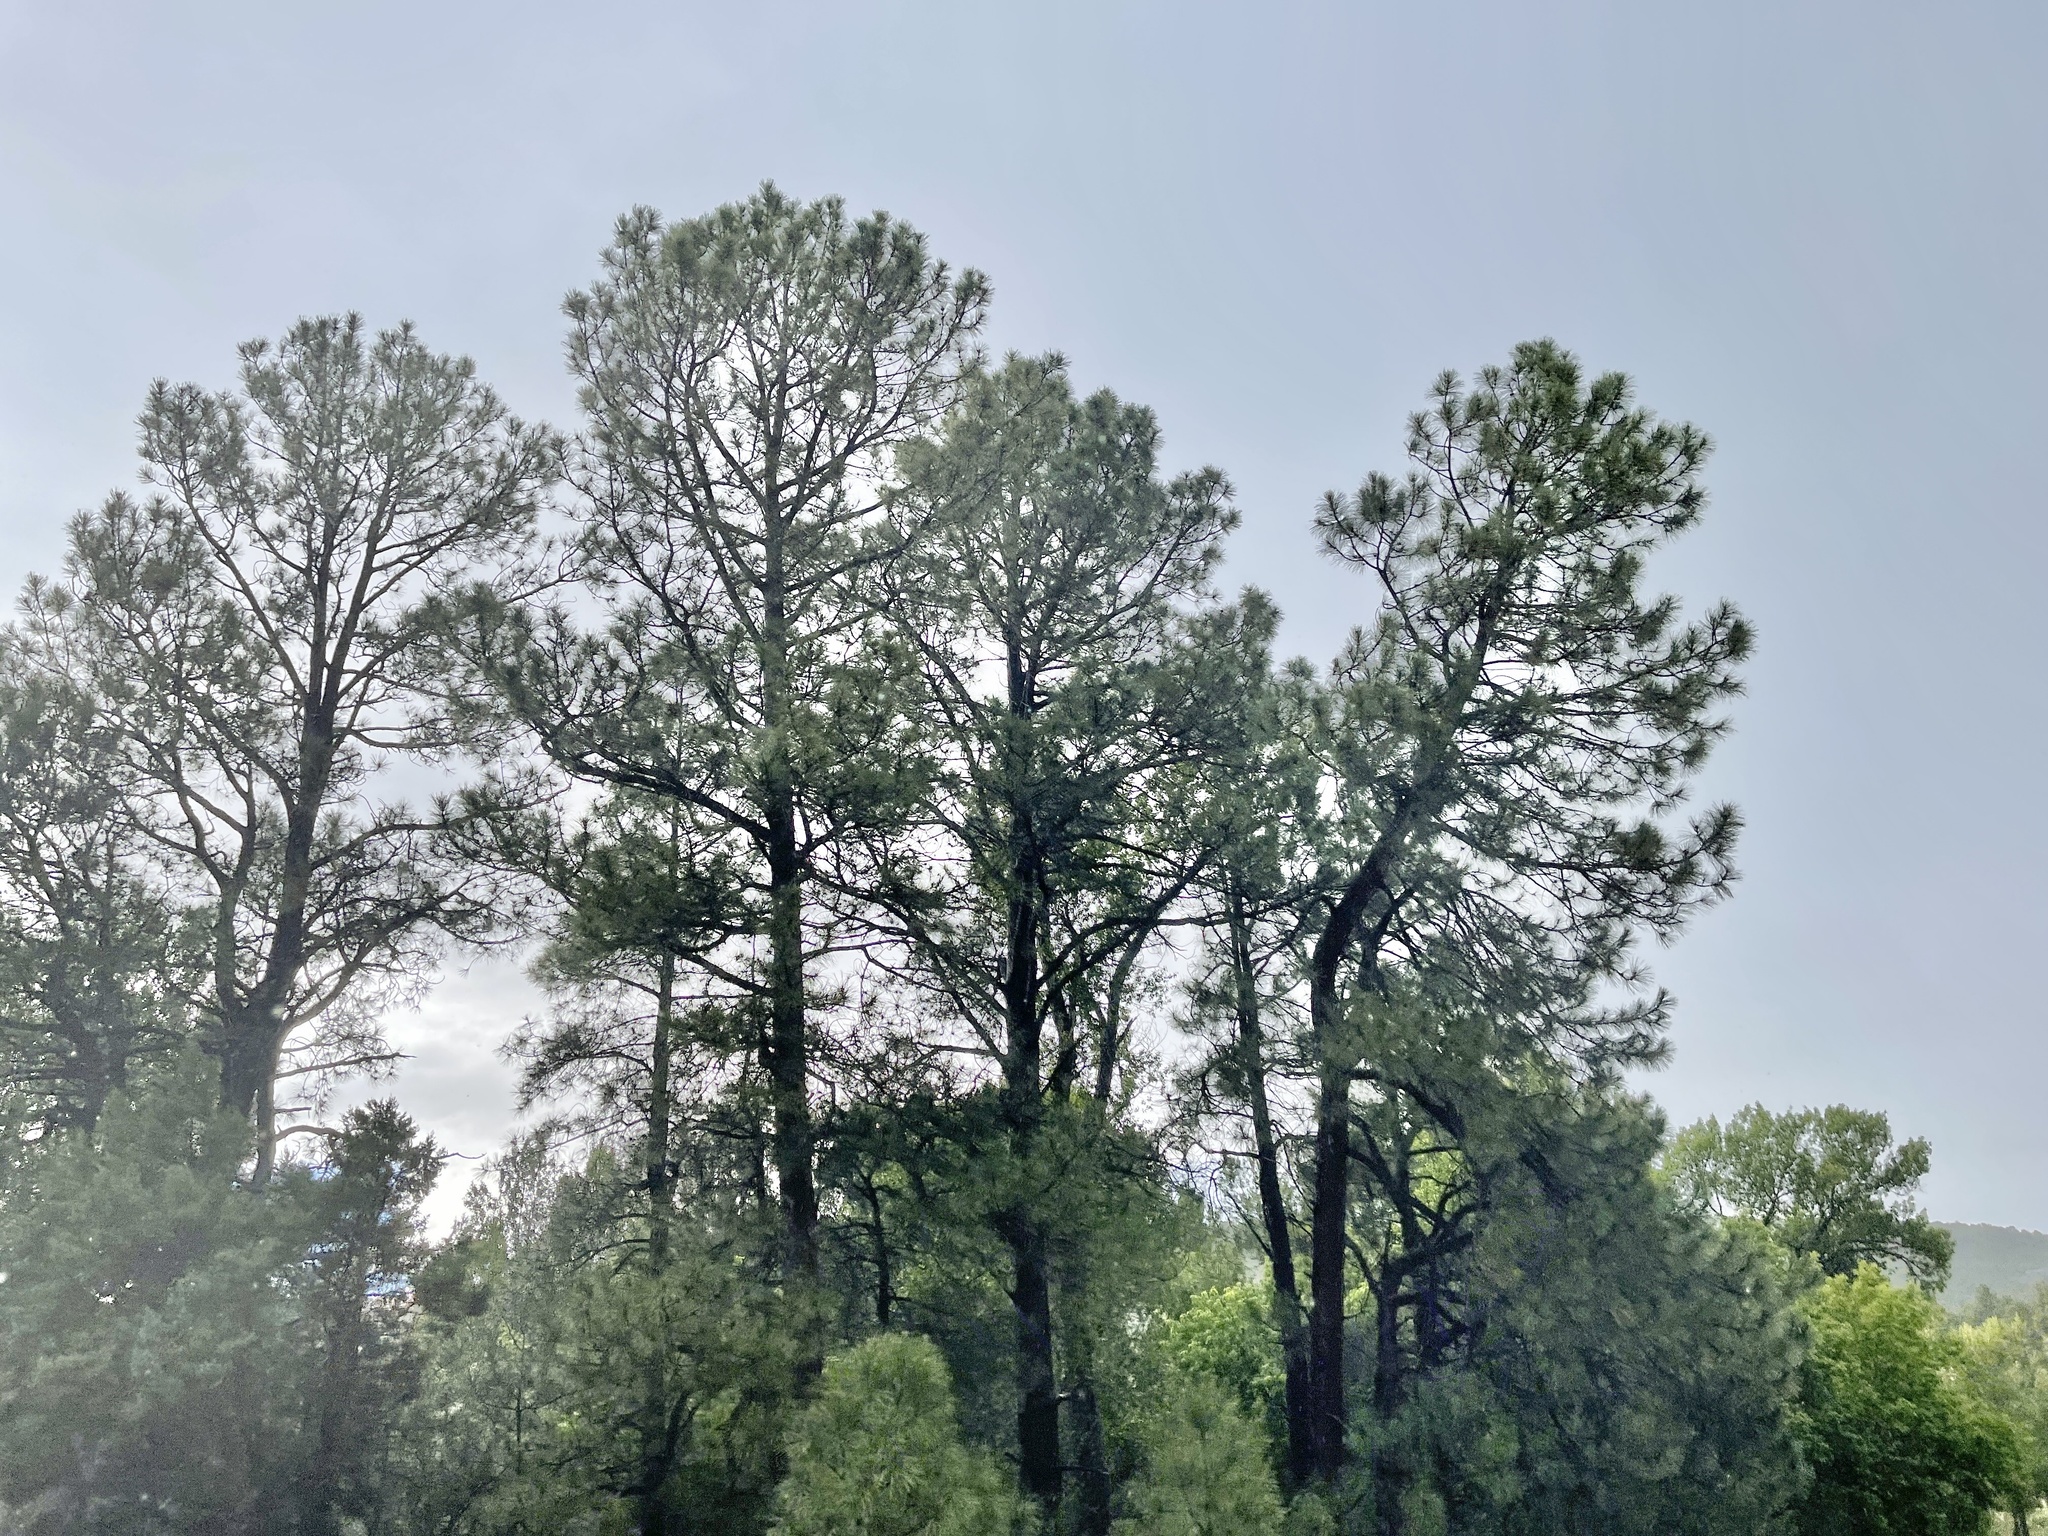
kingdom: Plantae
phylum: Tracheophyta
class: Pinopsida
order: Pinales
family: Pinaceae
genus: Pinus
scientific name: Pinus ponderosa
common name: Western yellow-pine
